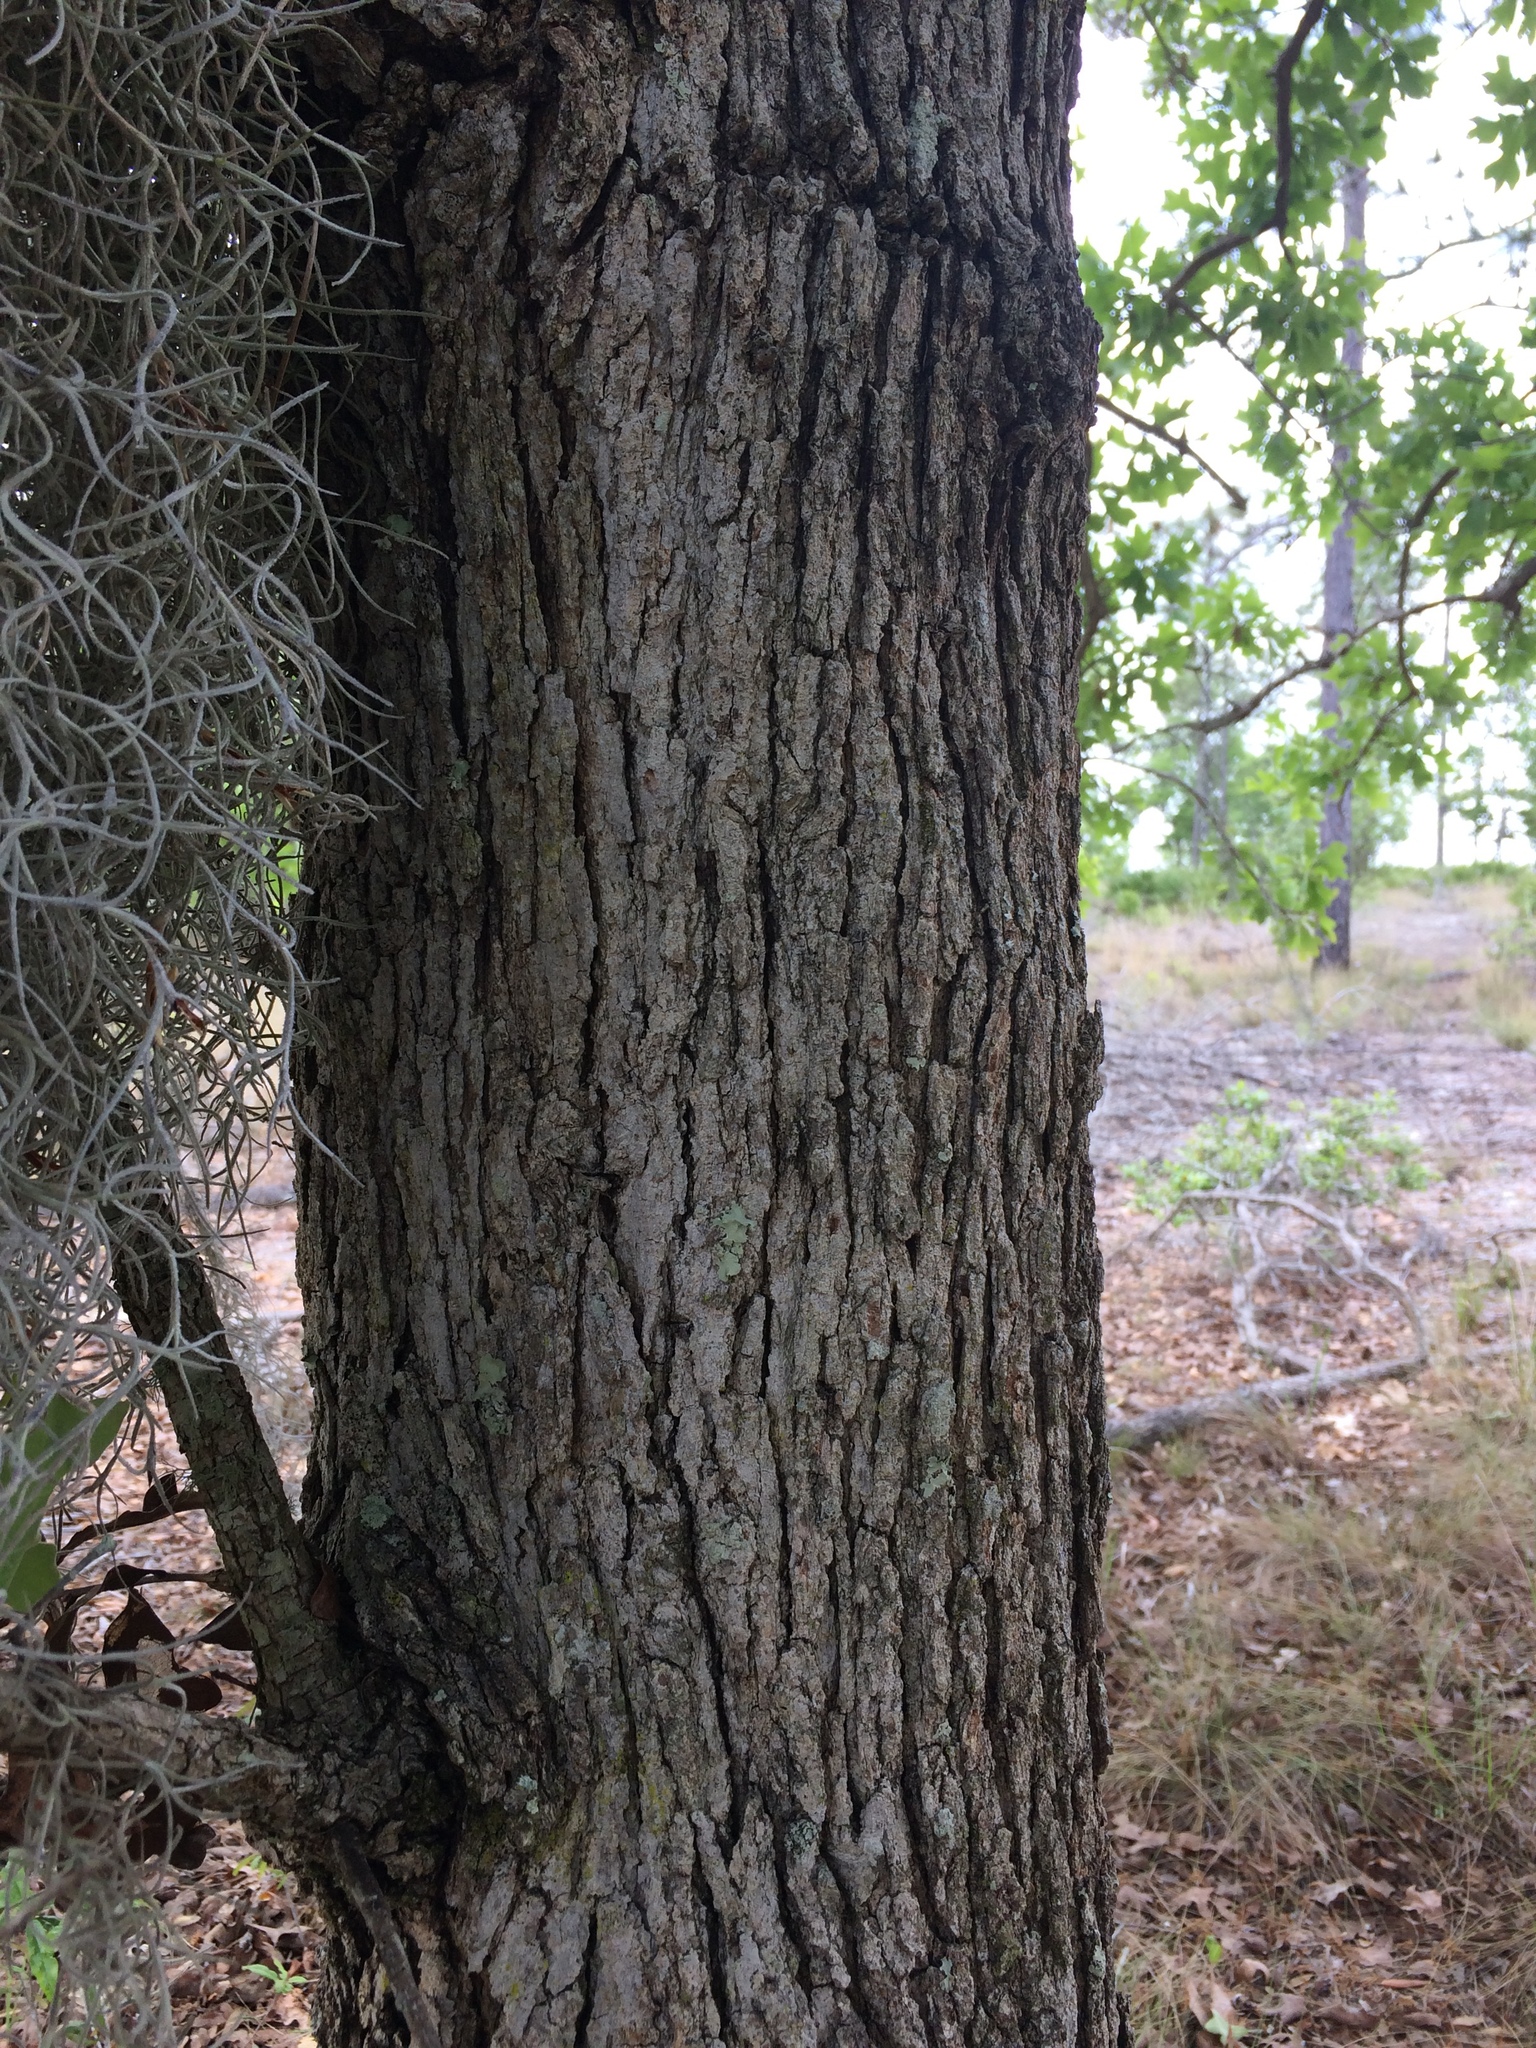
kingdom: Plantae
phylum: Tracheophyta
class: Magnoliopsida
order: Fagales
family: Fagaceae
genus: Quercus
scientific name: Quercus margaretiae
